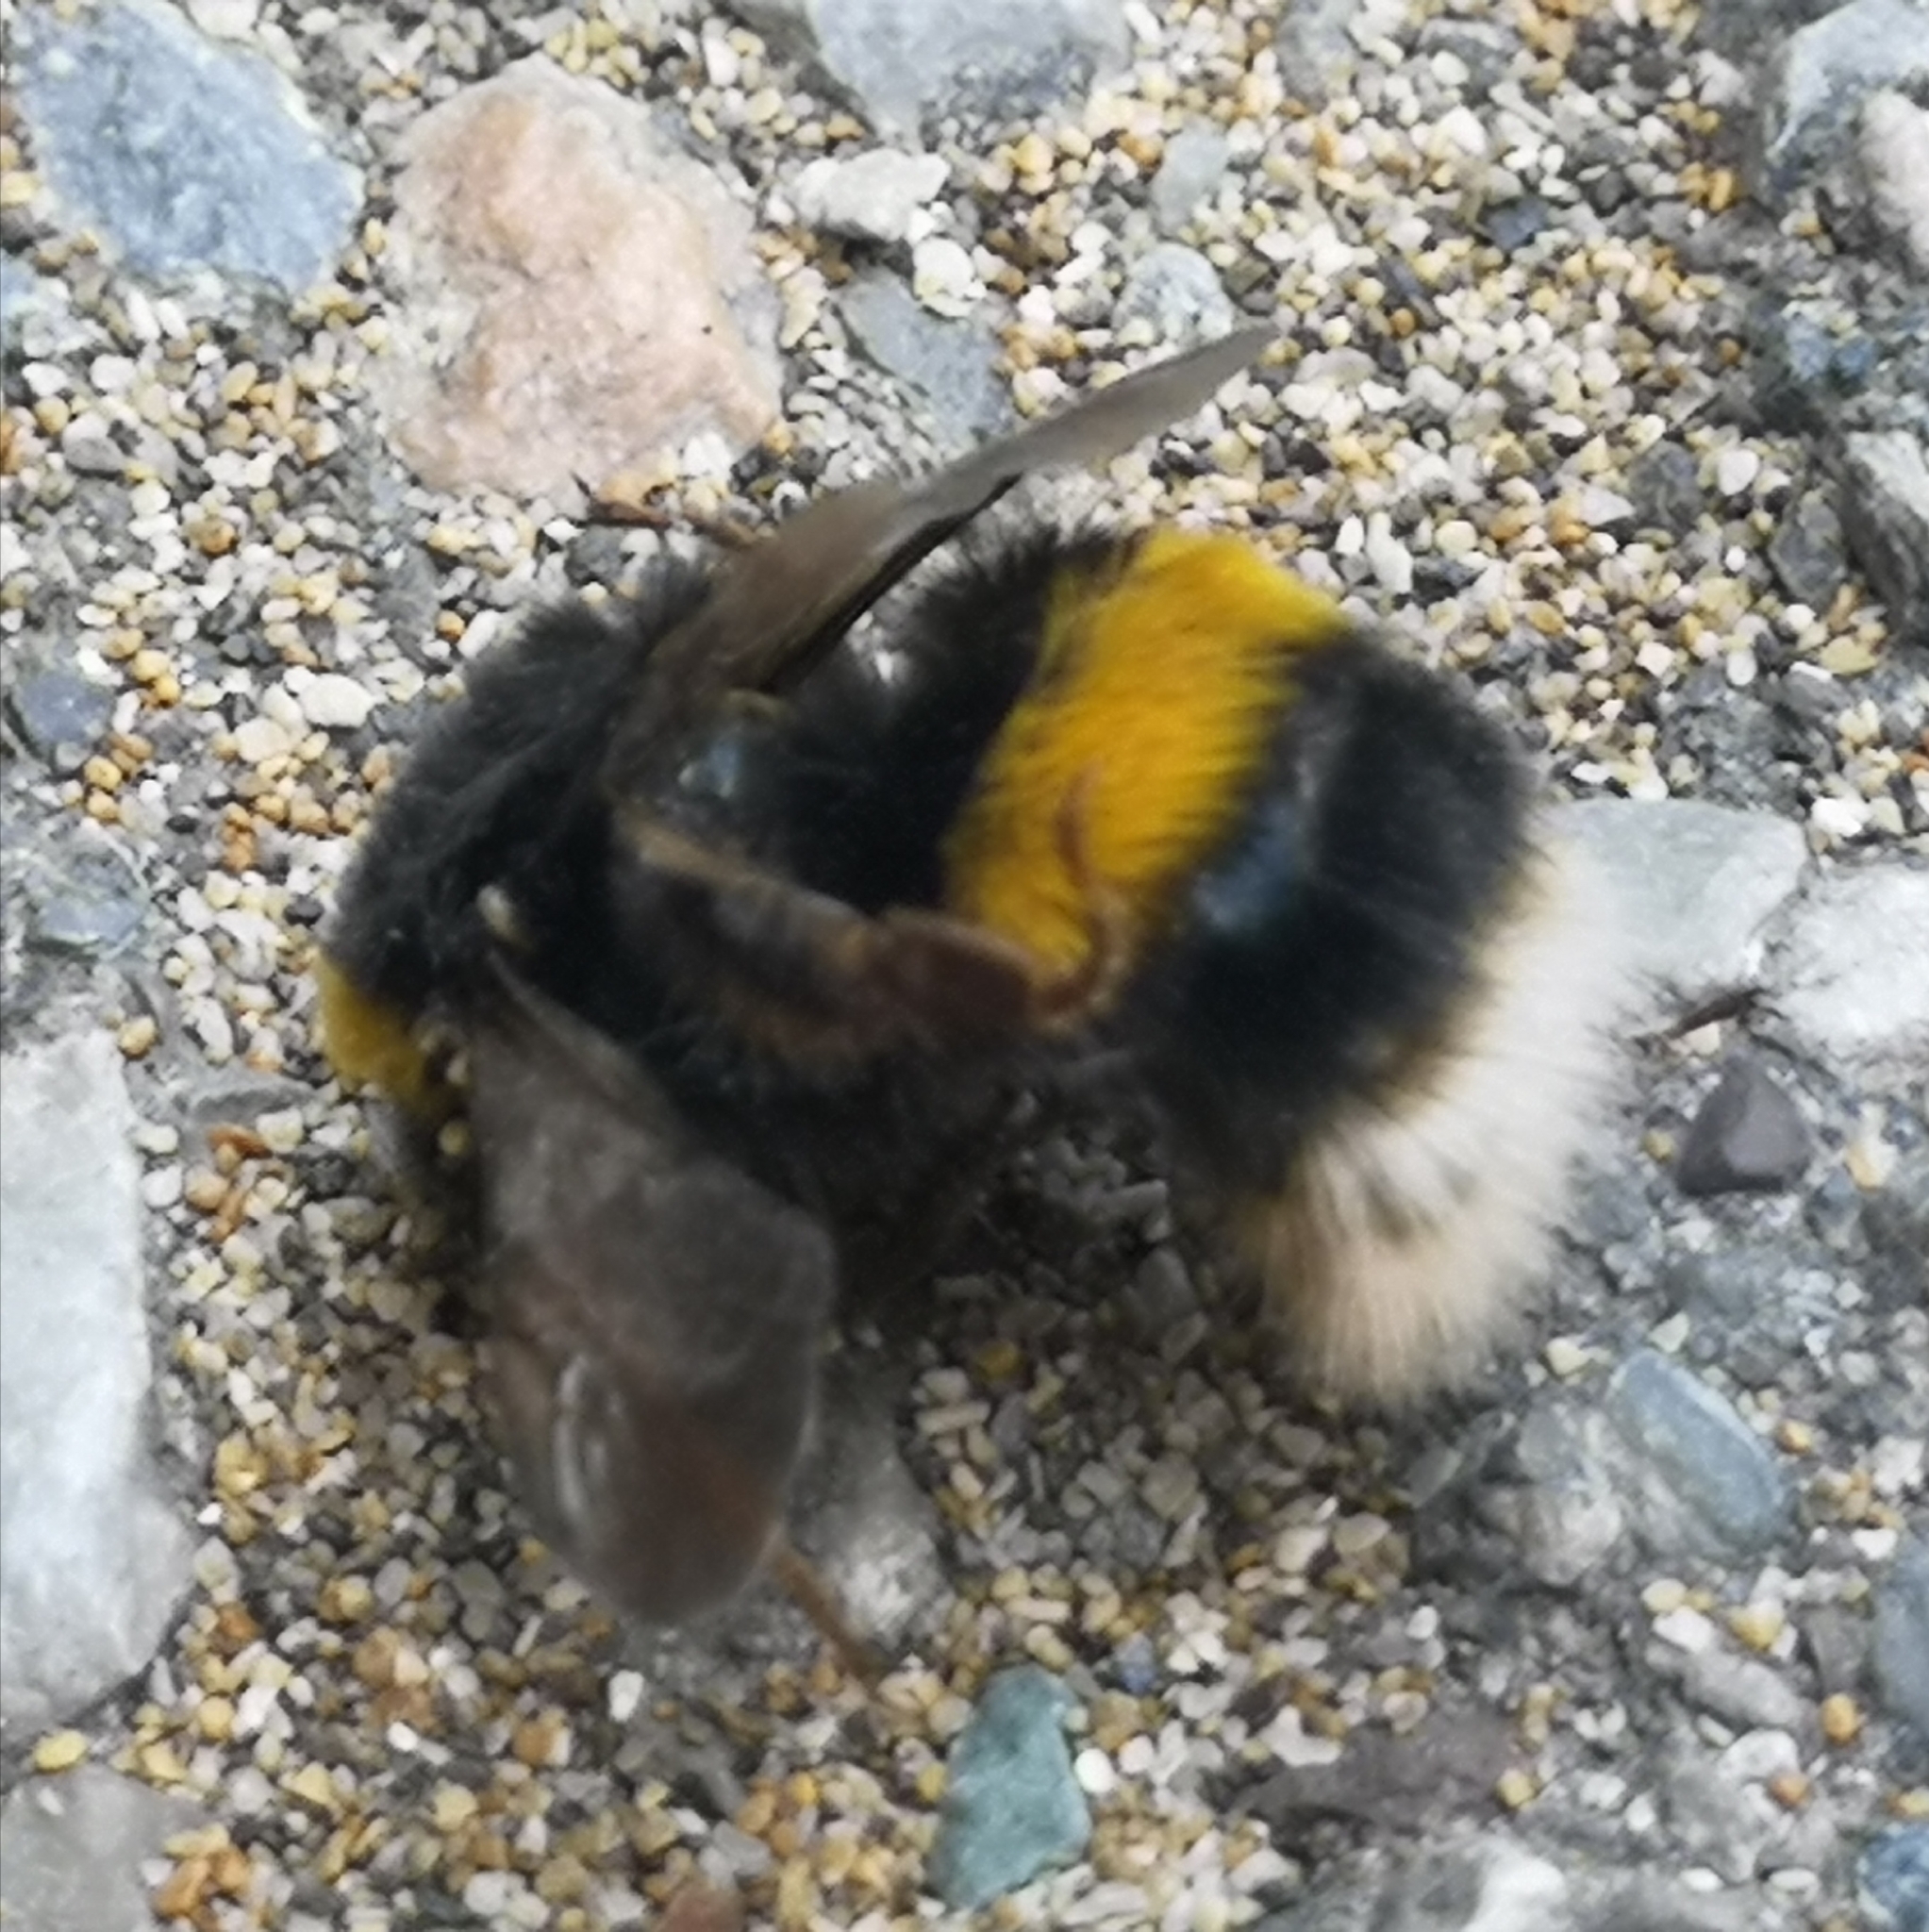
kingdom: Animalia
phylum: Arthropoda
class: Insecta
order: Hymenoptera
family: Apidae
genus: Bombus
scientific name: Bombus terrestris
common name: Buff-tailed bumblebee
